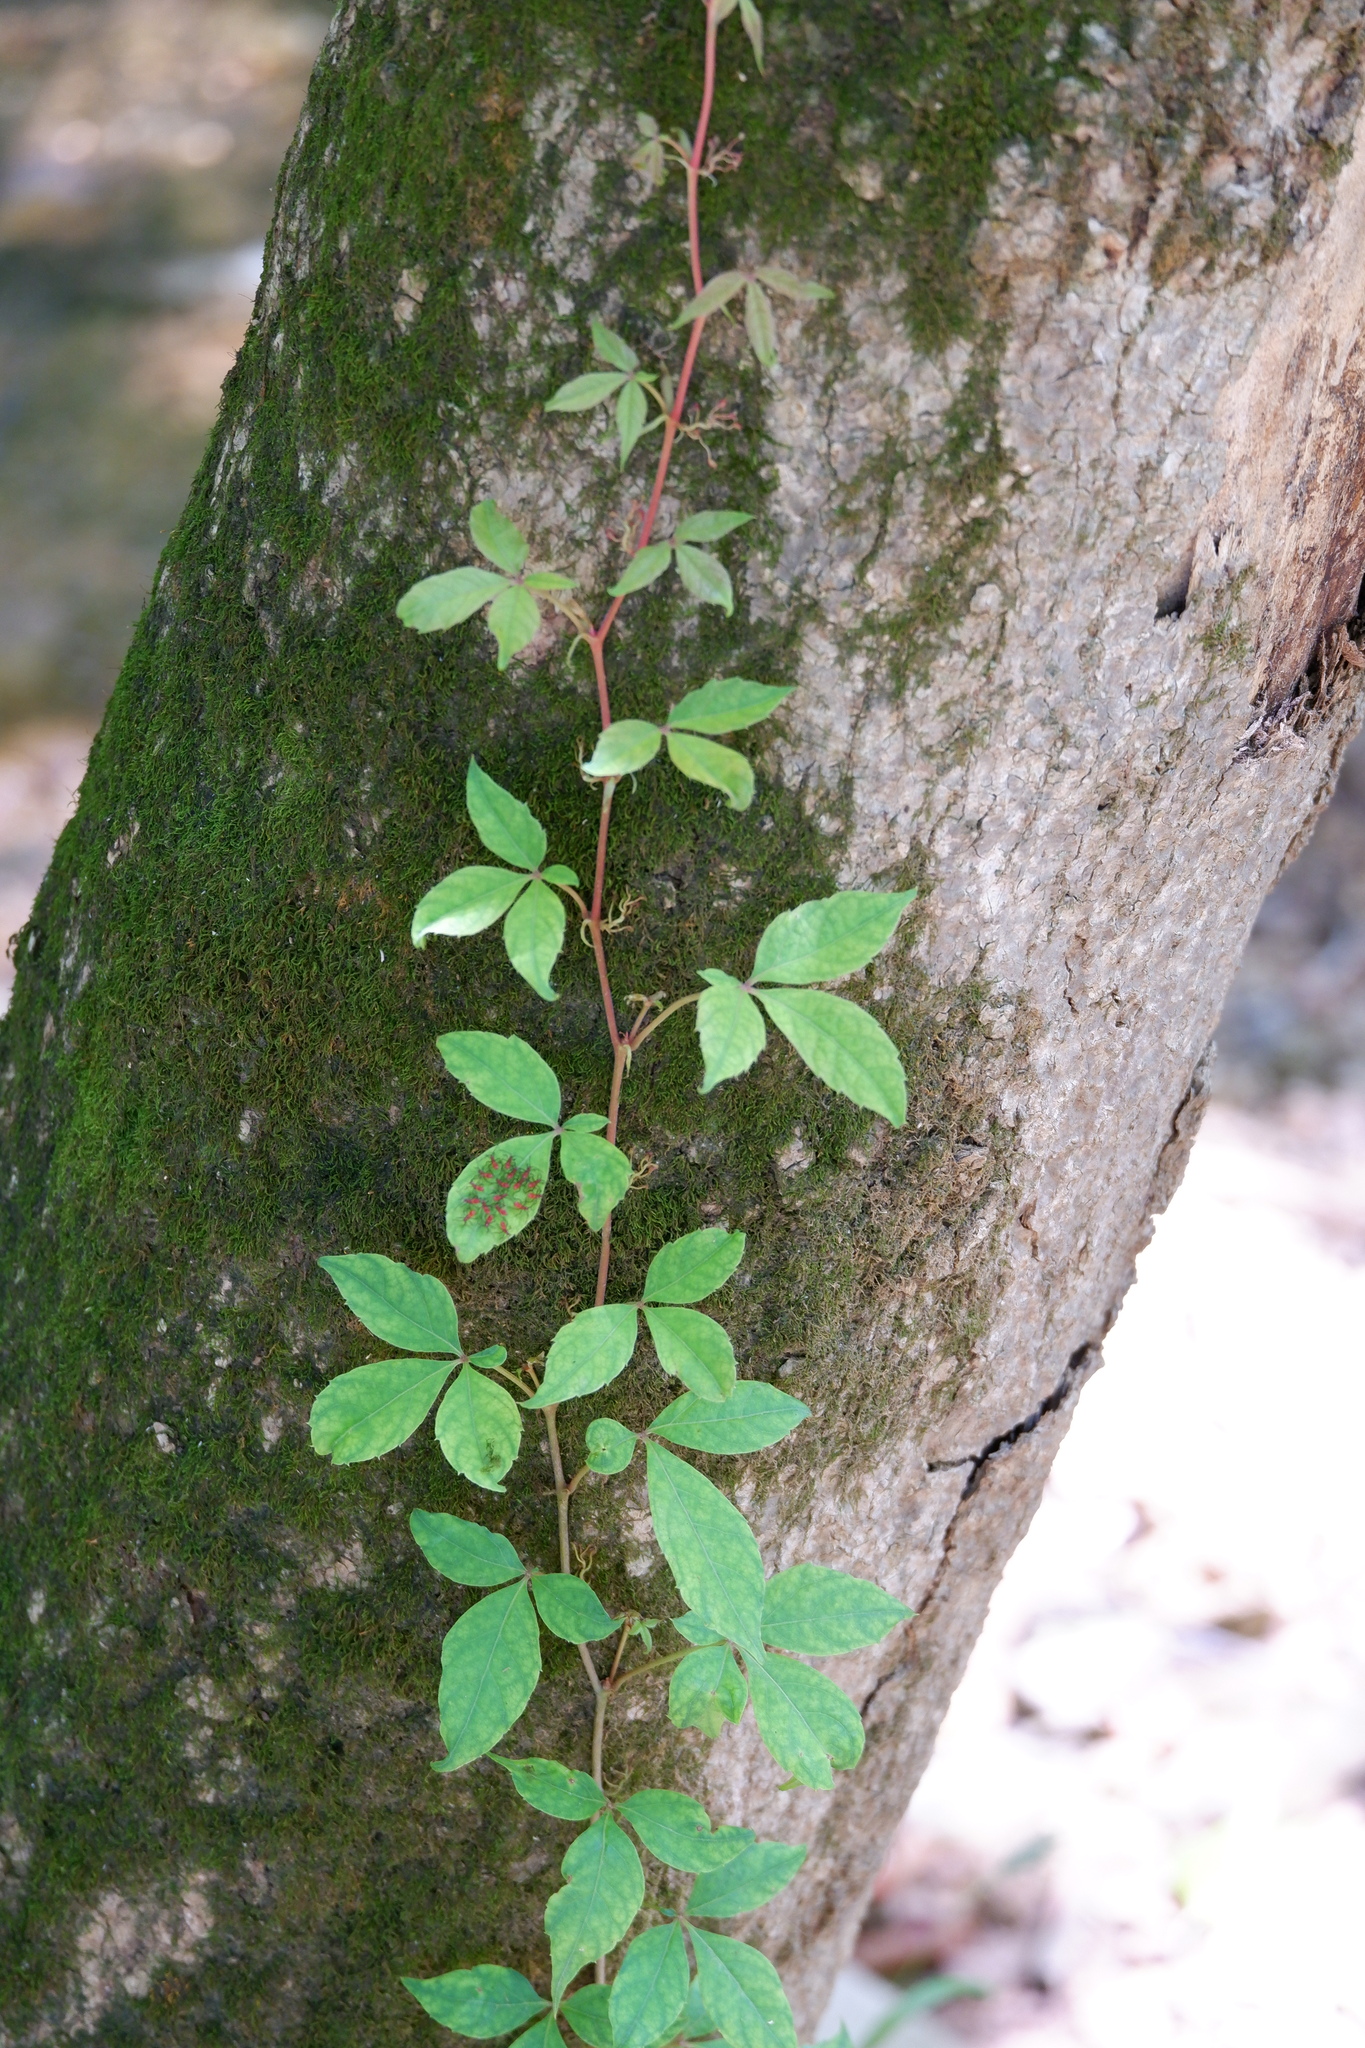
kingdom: Plantae
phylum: Tracheophyta
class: Magnoliopsida
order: Vitales
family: Vitaceae
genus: Parthenocissus
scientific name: Parthenocissus quinquefolia
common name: Virginia-creeper
